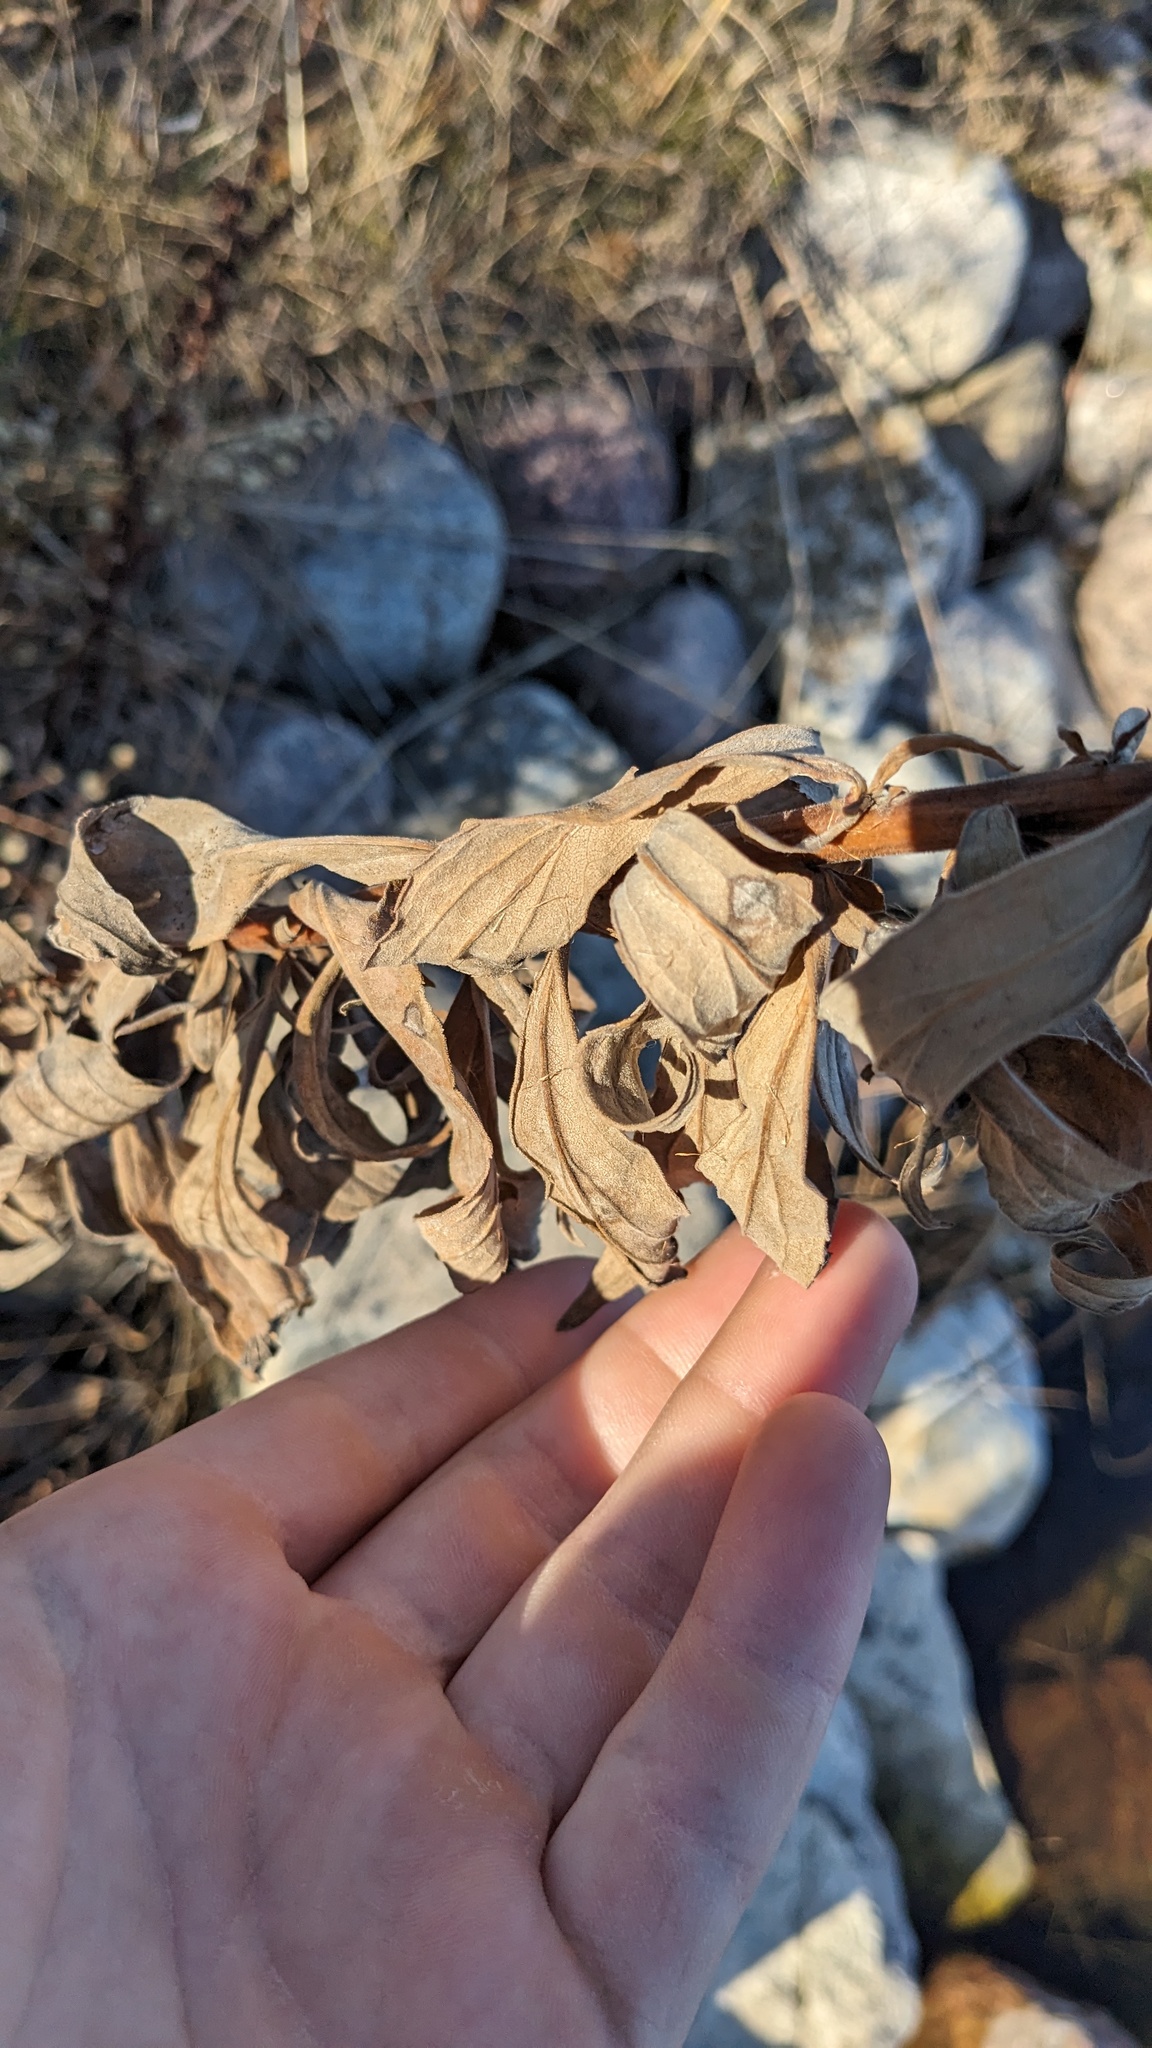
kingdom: Animalia
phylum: Arthropoda
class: Insecta
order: Diptera
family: Cecidomyiidae
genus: Asteromyia
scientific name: Asteromyia carbonifera
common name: Carbonifera goldenrod gall midge
